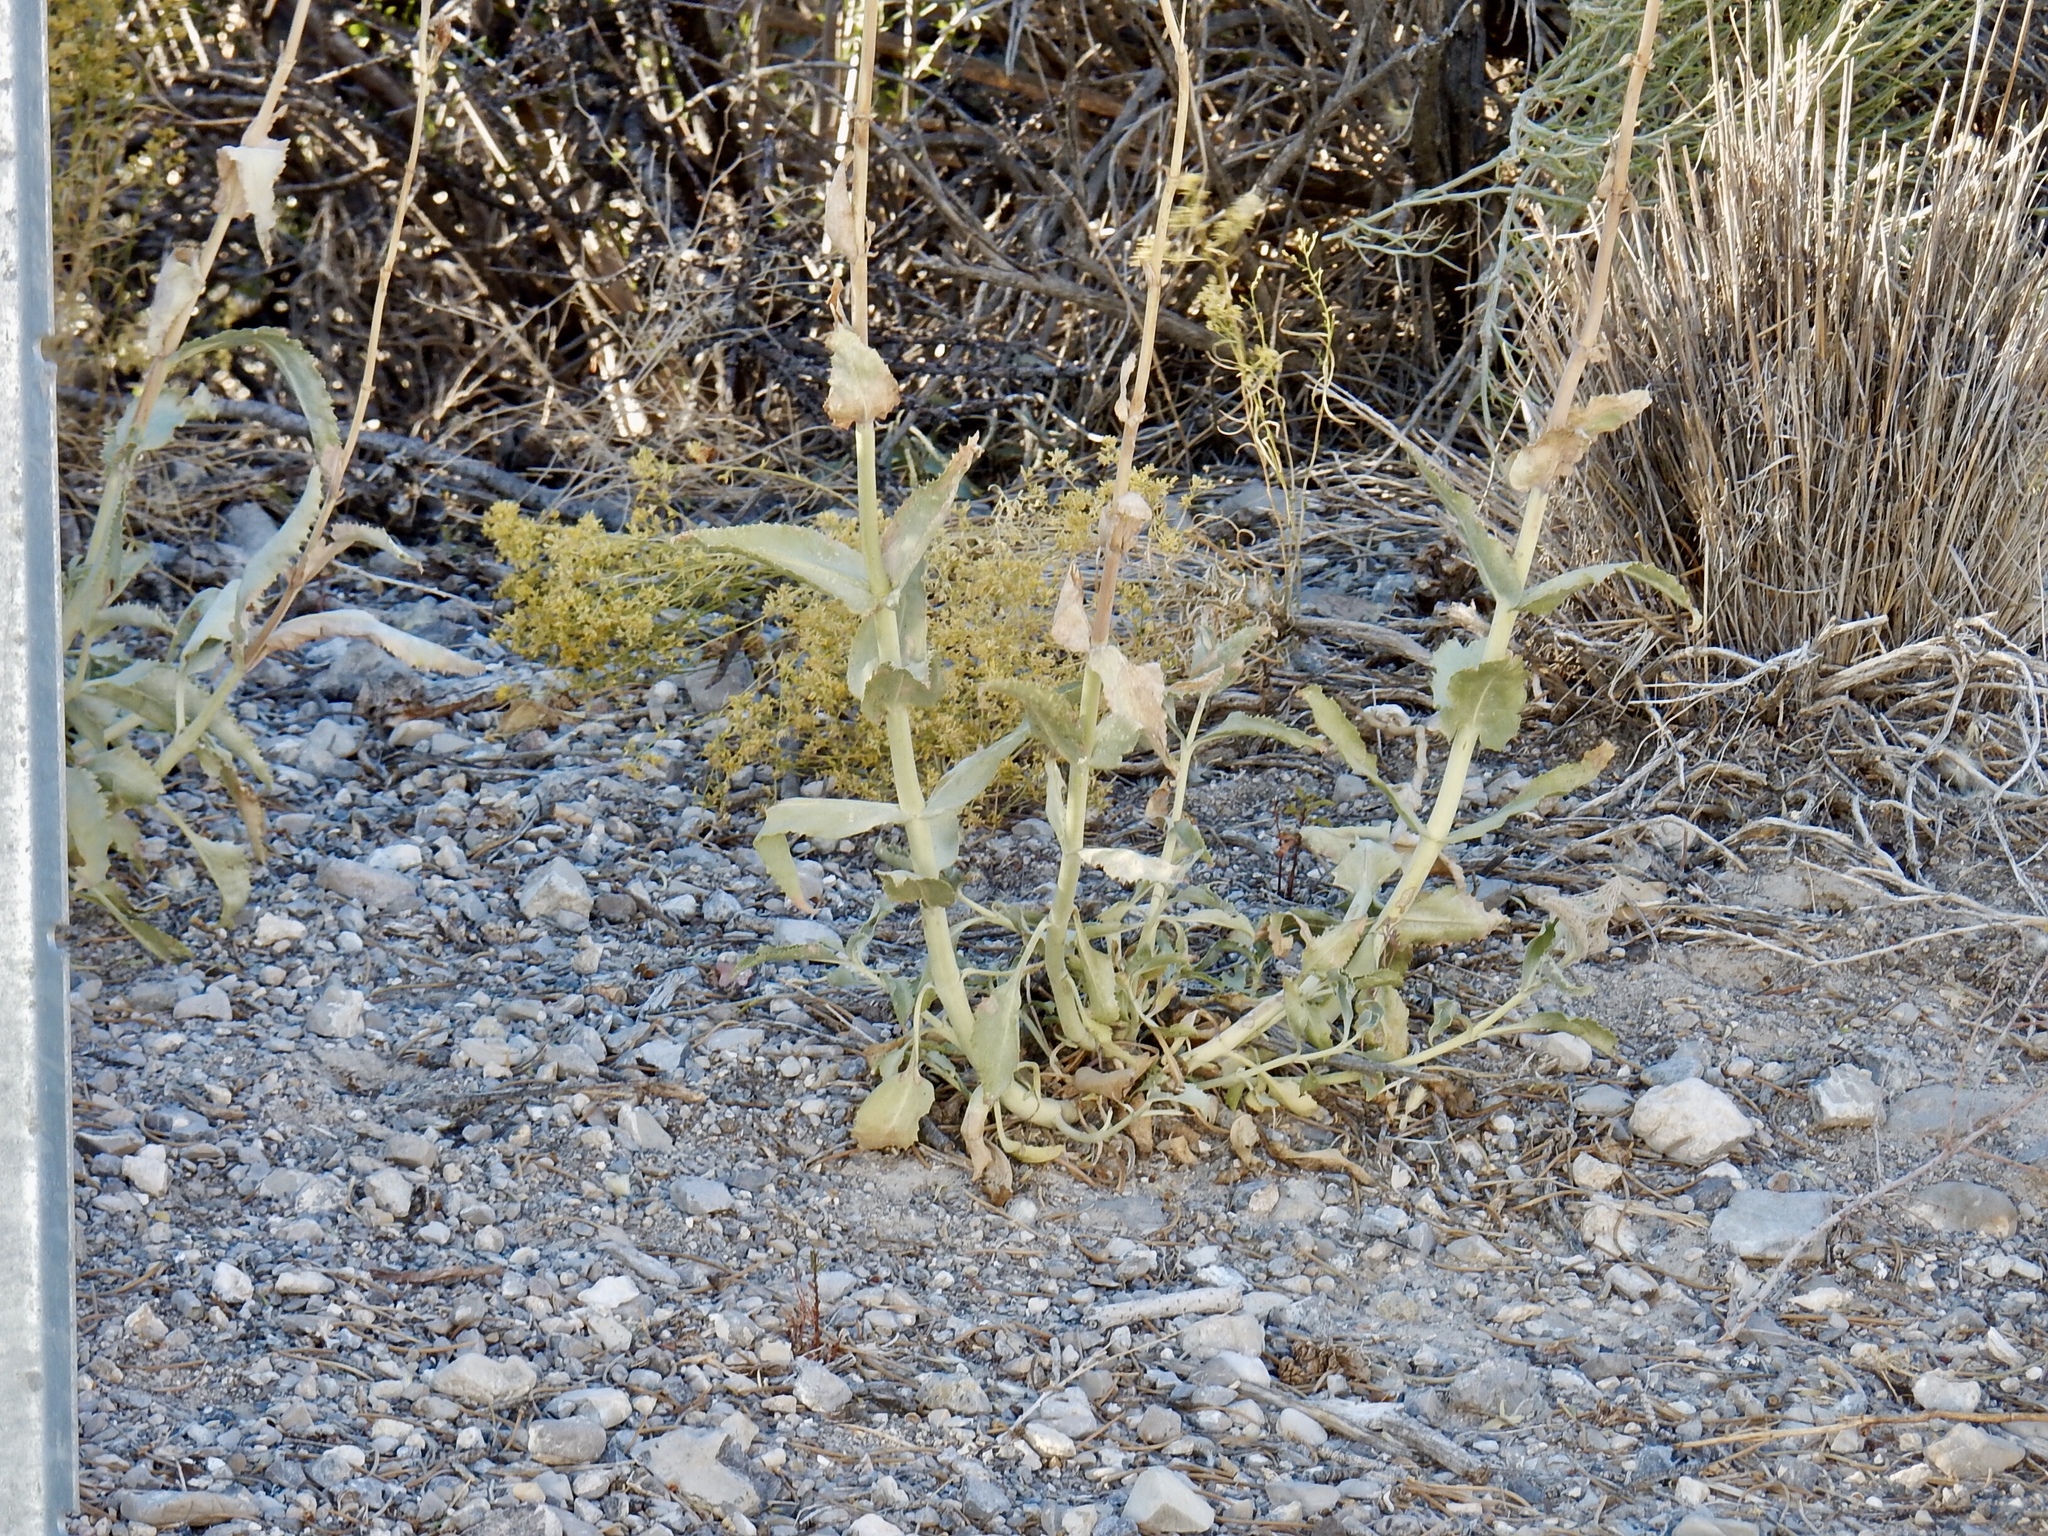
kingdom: Plantae
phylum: Tracheophyta
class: Magnoliopsida
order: Lamiales
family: Plantaginaceae
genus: Penstemon
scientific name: Penstemon palmeri
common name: Palmer penstemon
